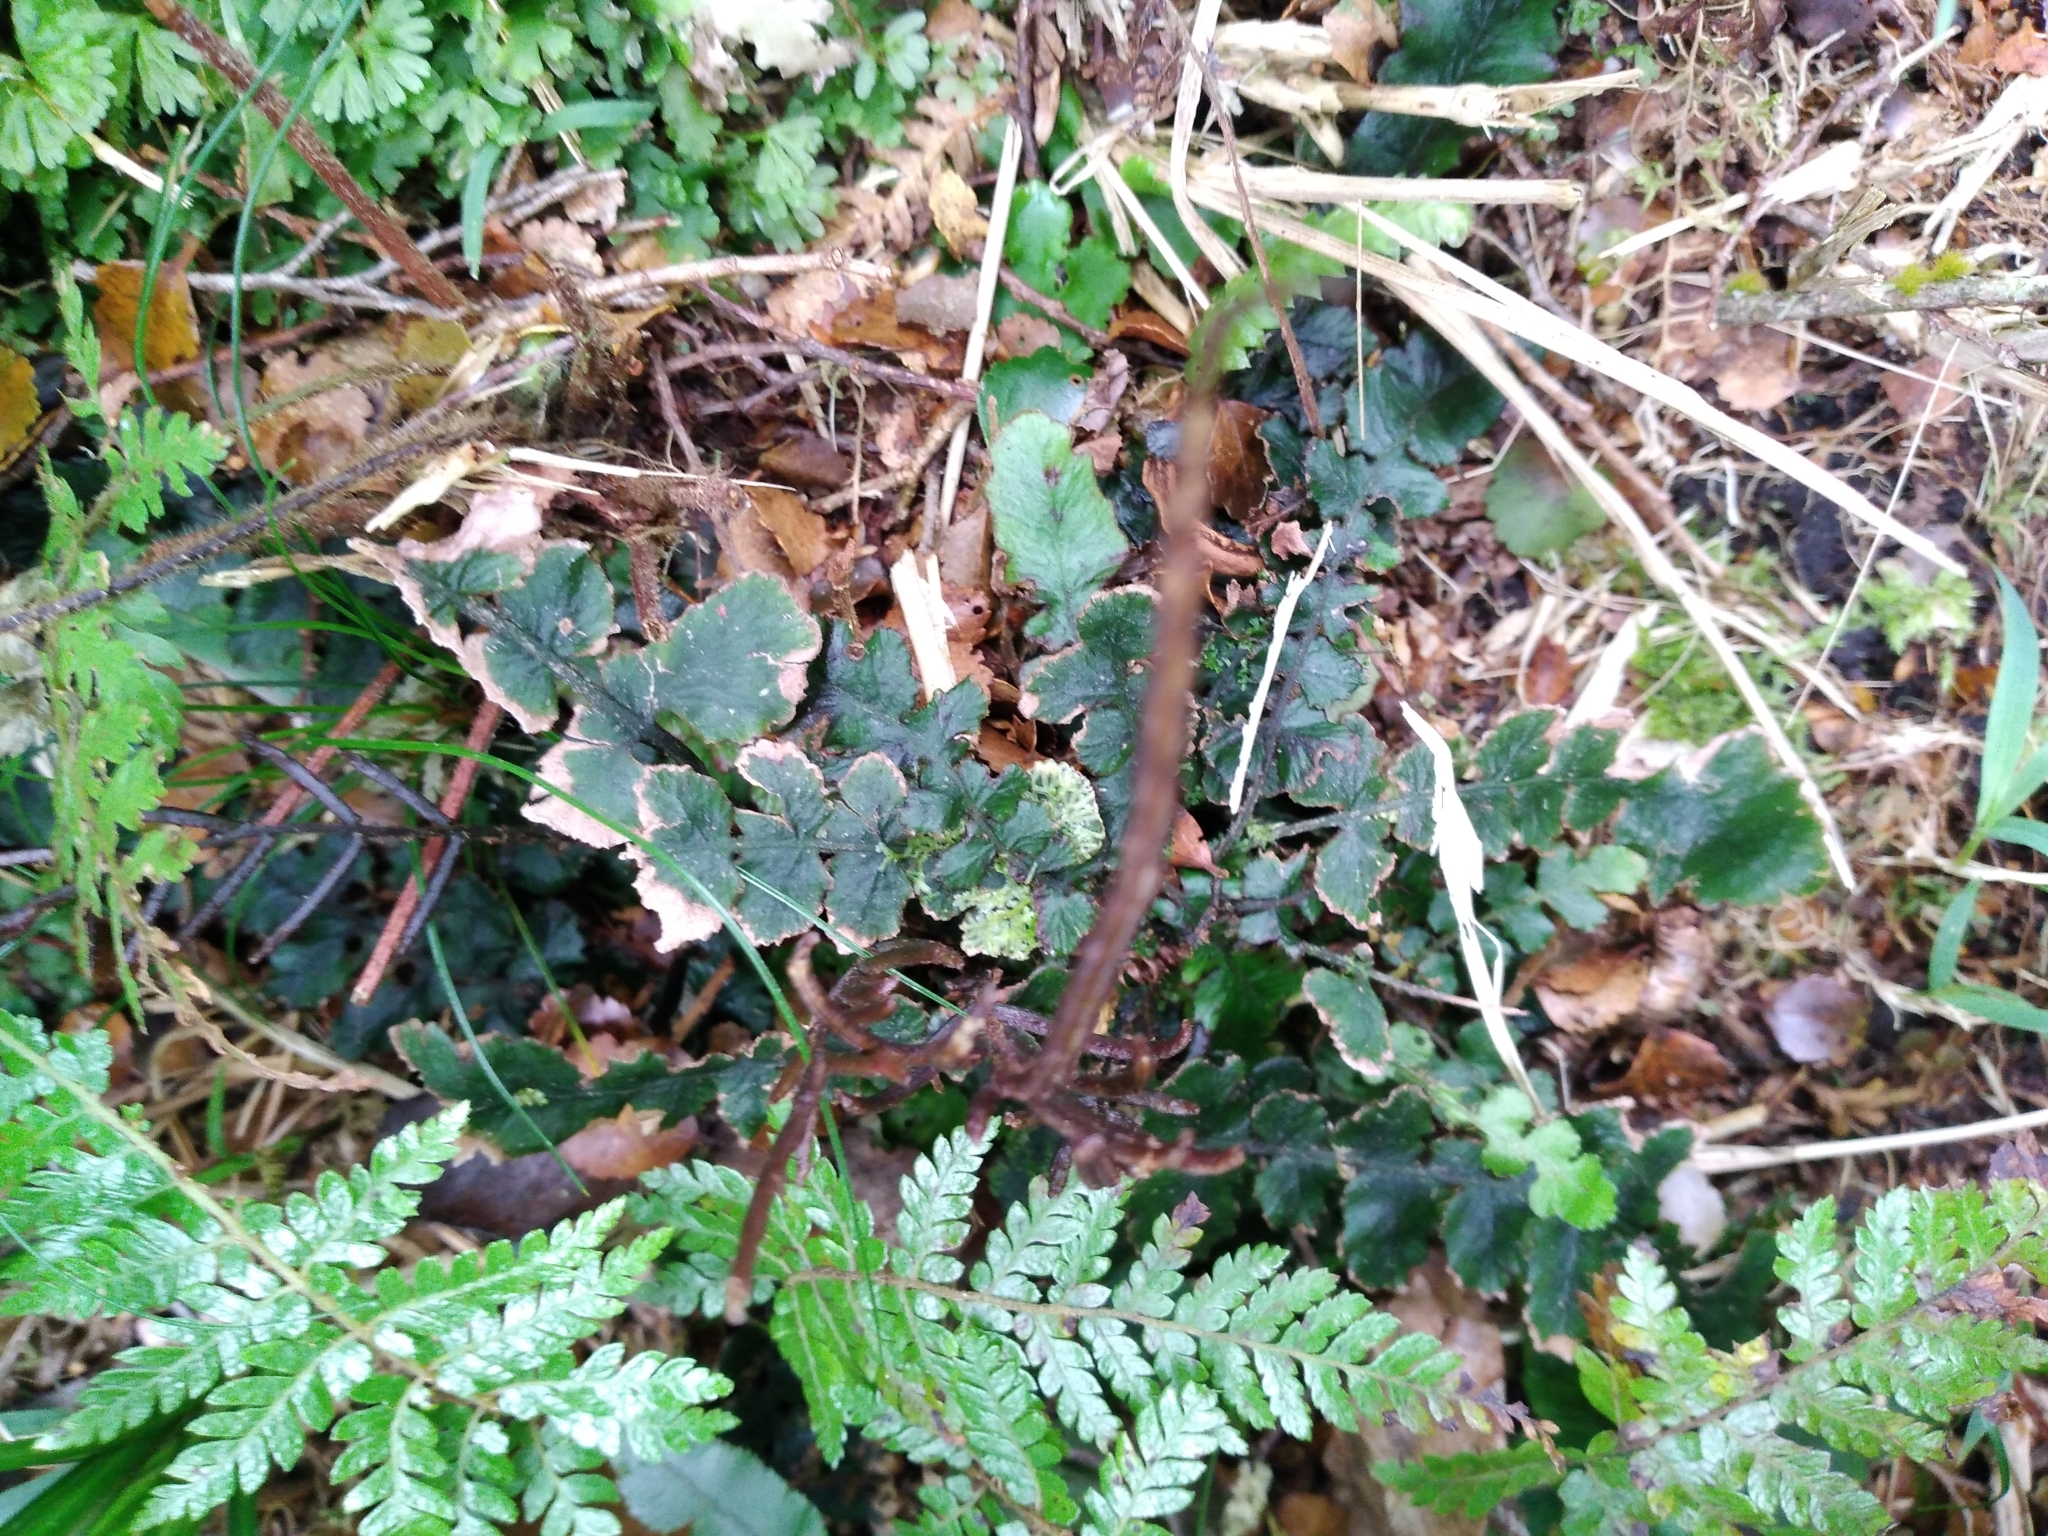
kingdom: Plantae
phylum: Tracheophyta
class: Polypodiopsida
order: Polypodiales
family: Blechnaceae
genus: Cranfillia
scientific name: Cranfillia nigra
